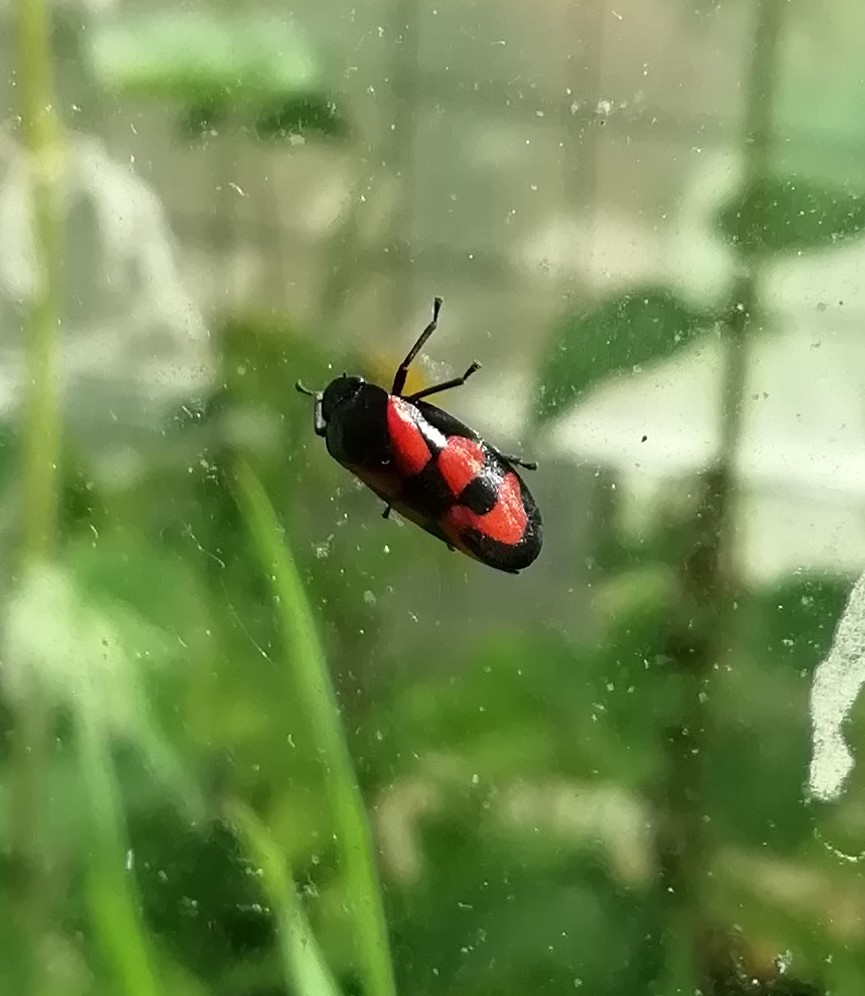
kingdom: Animalia
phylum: Arthropoda
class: Insecta
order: Hemiptera
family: Cercopidae
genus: Cercopis
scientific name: Cercopis vulnerata
